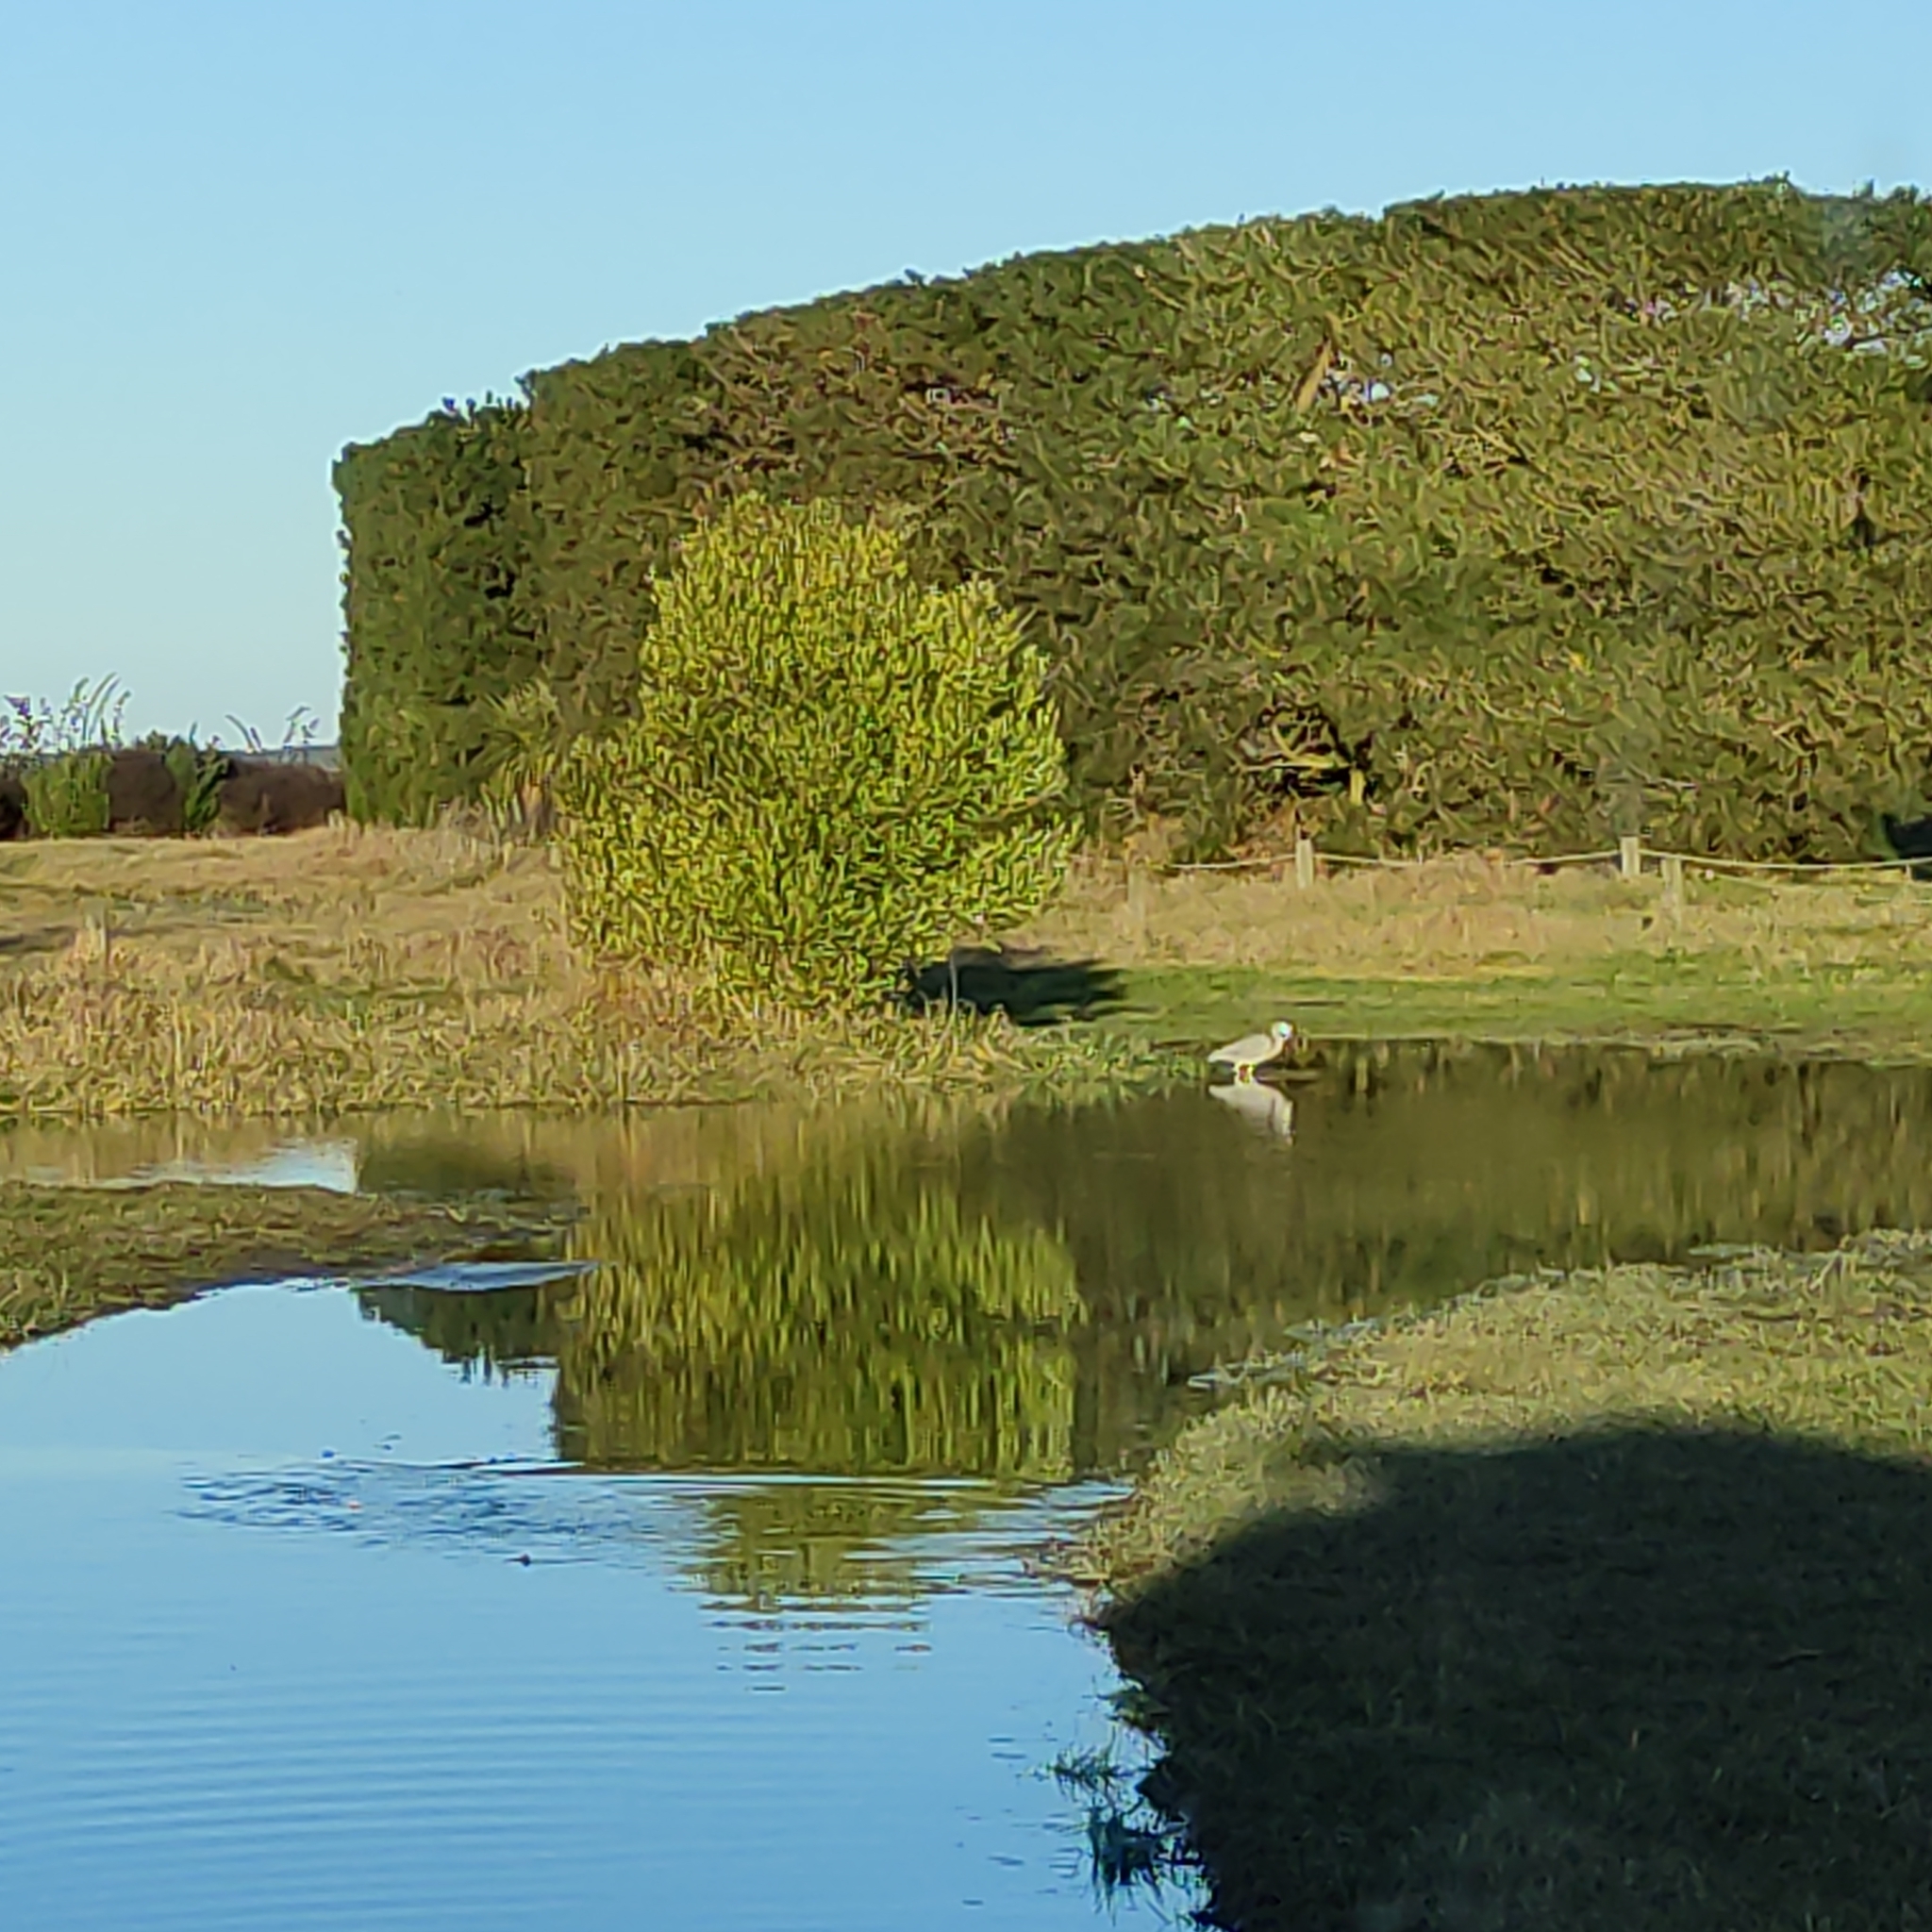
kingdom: Animalia
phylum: Chordata
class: Aves
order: Pelecaniformes
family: Ardeidae
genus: Egretta
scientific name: Egretta novaehollandiae
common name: White-faced heron
